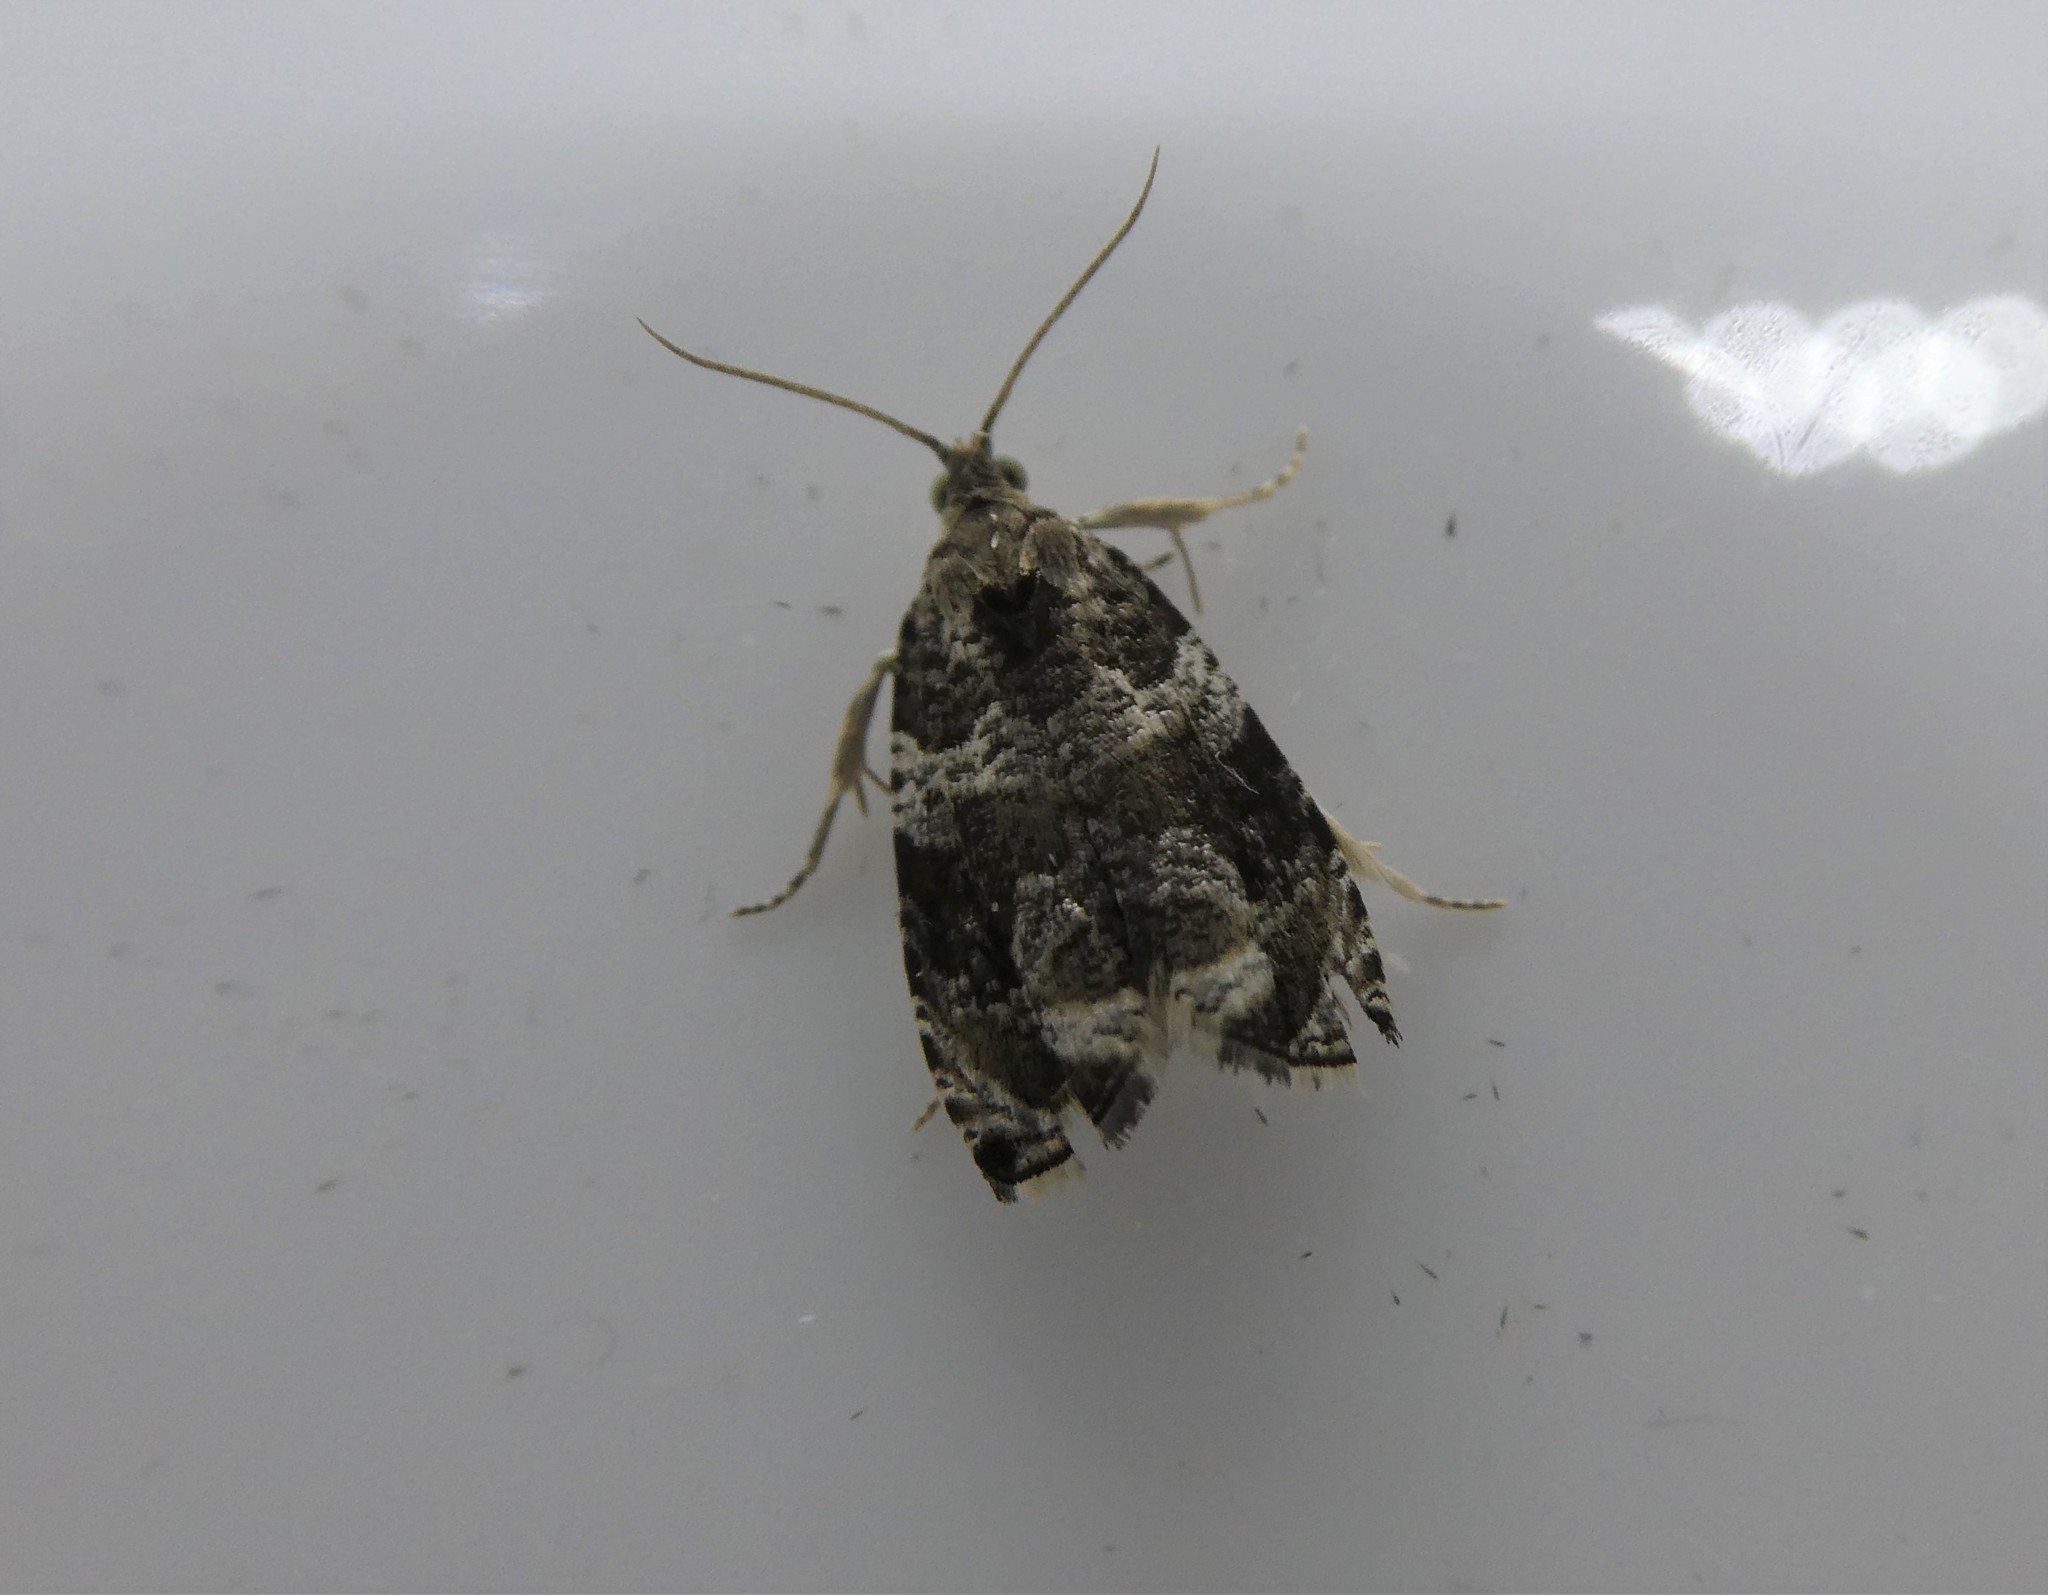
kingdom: Animalia
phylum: Arthropoda
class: Insecta
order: Lepidoptera
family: Tortricidae
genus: Olethreutes
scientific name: Olethreutes appendiceum
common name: Serviceberry leafroller
